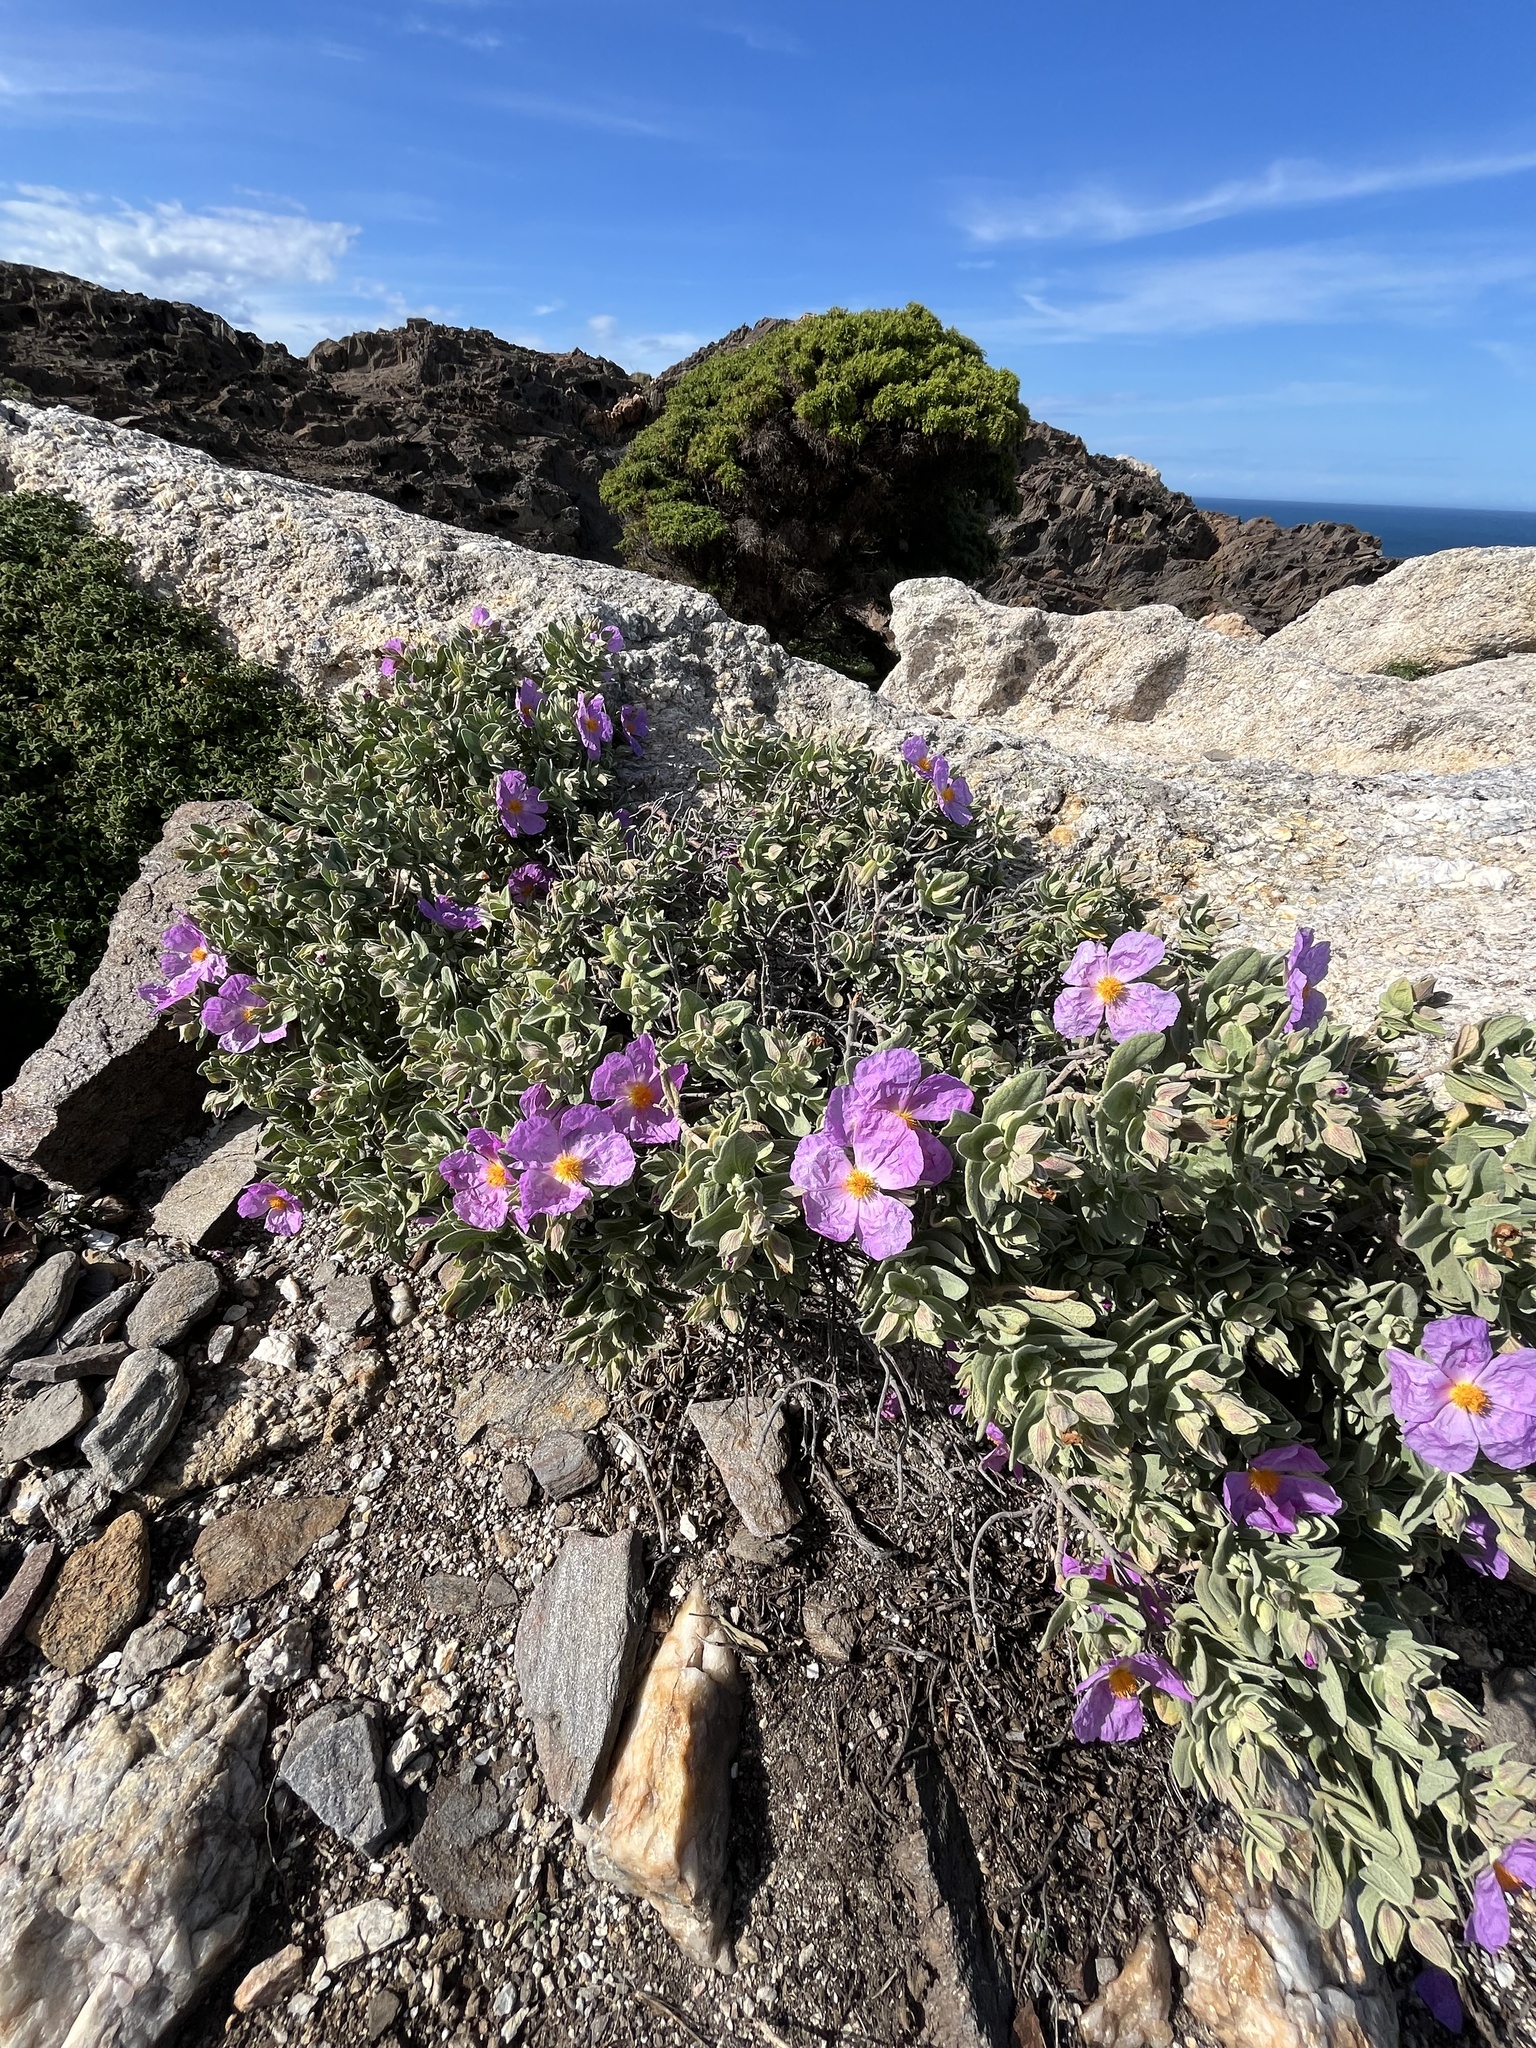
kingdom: Plantae
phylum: Tracheophyta
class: Magnoliopsida
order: Malvales
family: Cistaceae
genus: Cistus
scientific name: Cistus albidus
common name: White-leaf rock-rose
